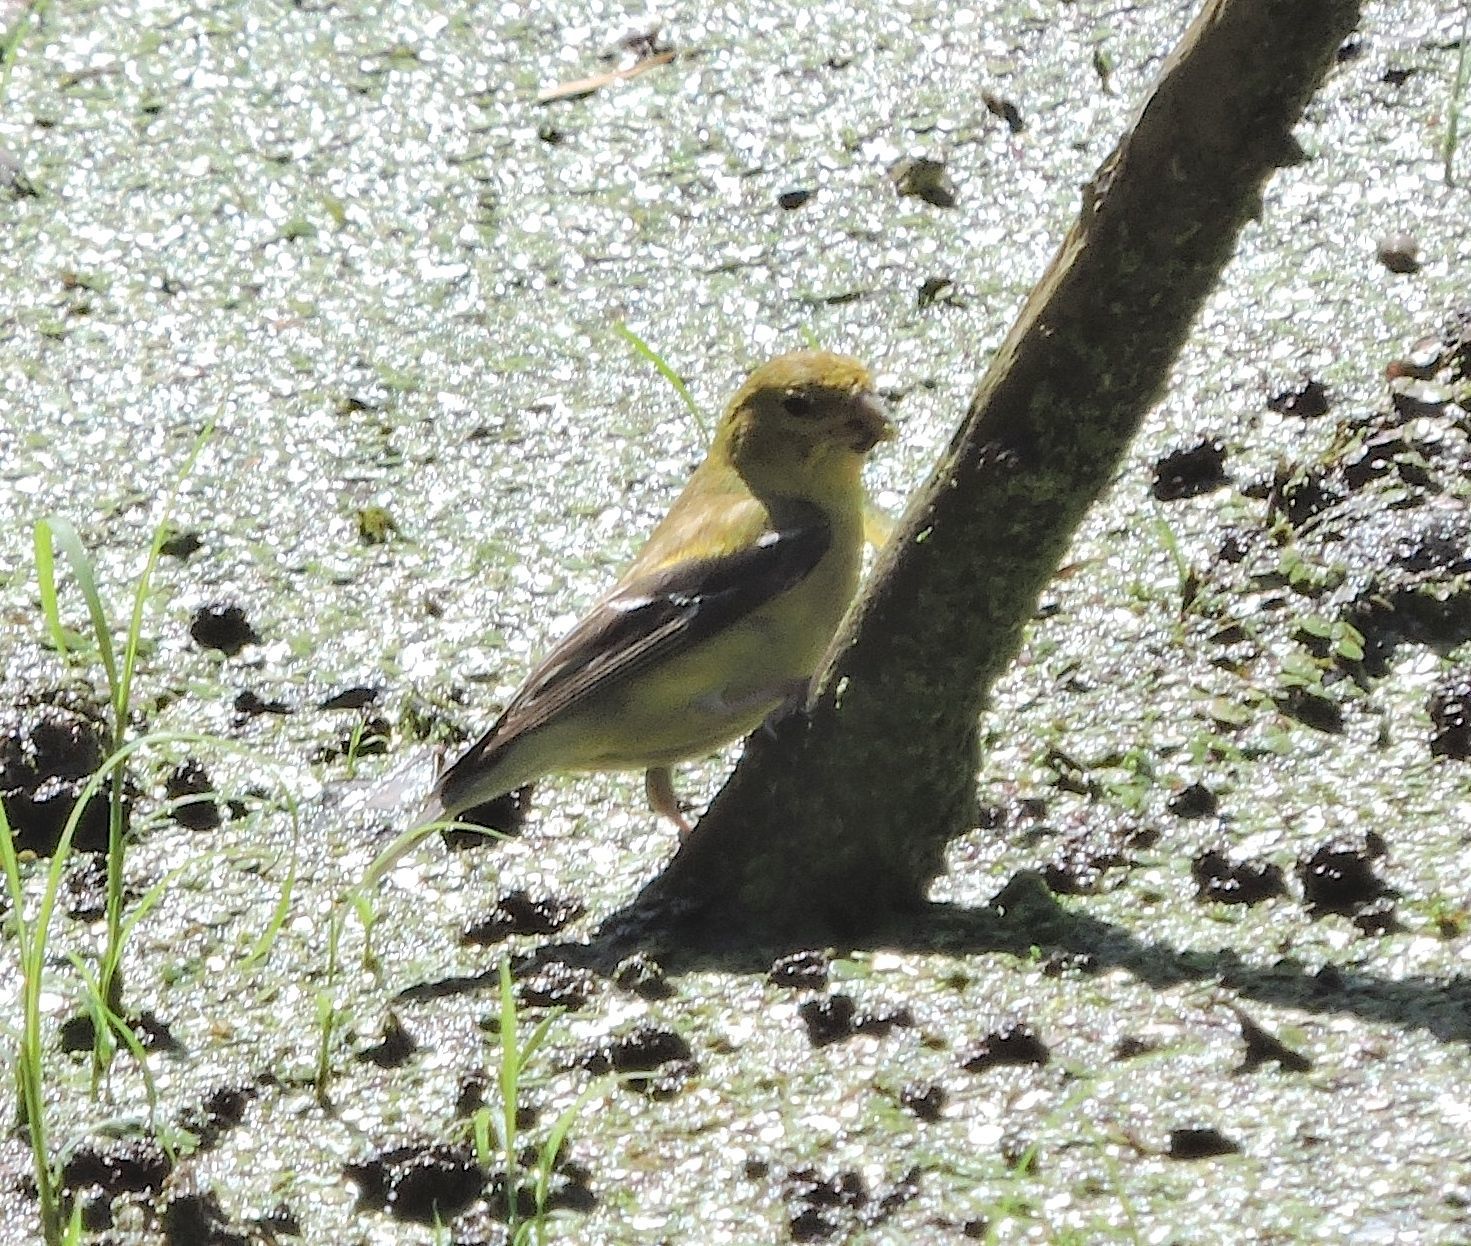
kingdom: Animalia
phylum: Chordata
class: Aves
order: Passeriformes
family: Fringillidae
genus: Spinus
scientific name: Spinus tristis
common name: American goldfinch
